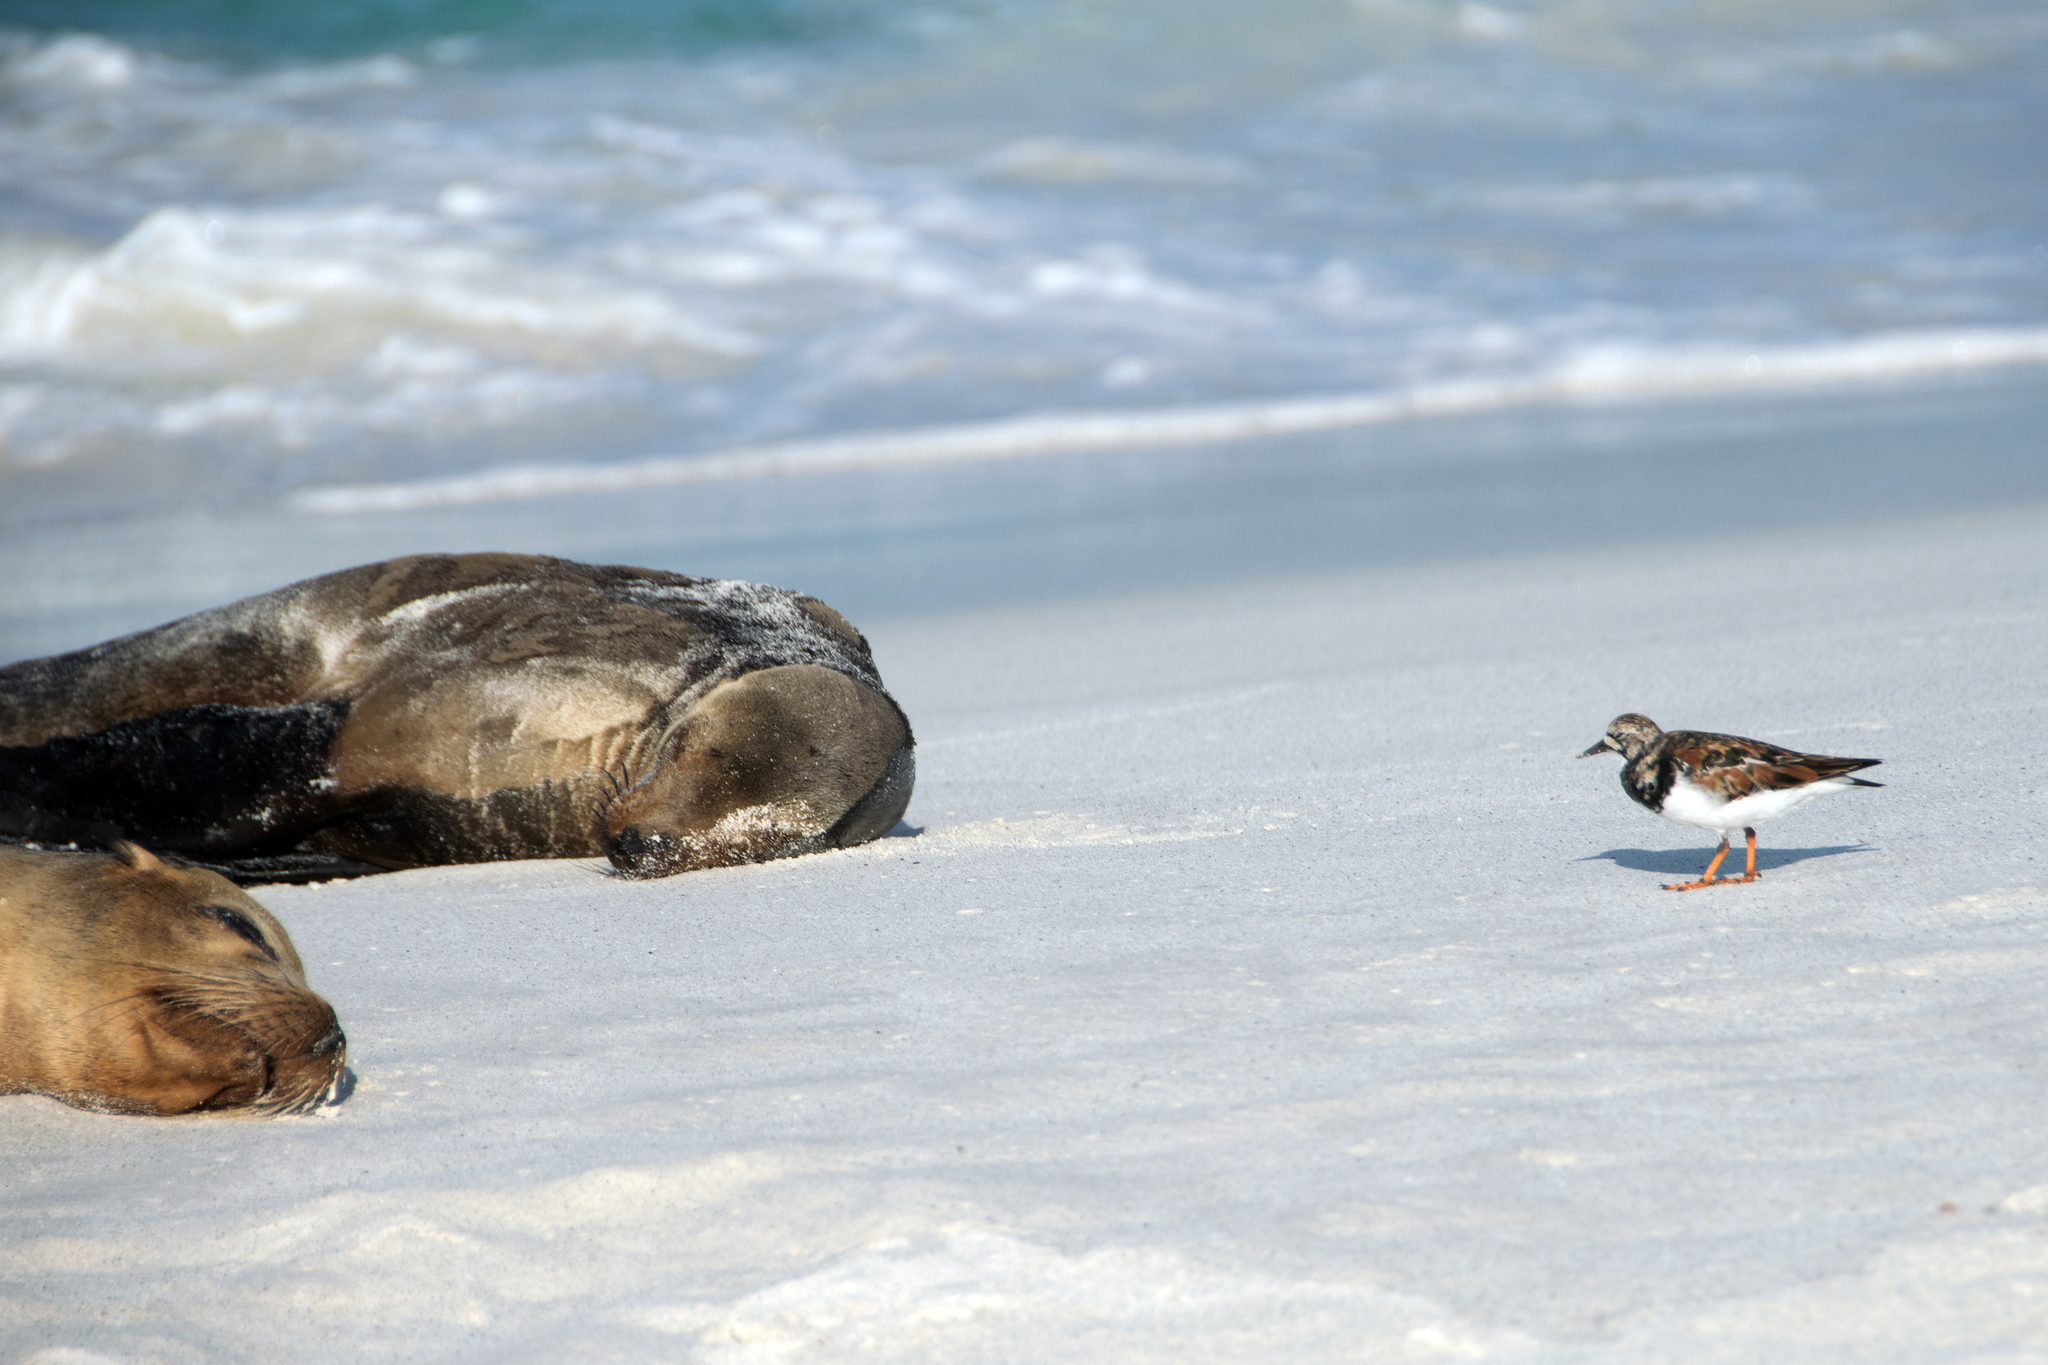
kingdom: Animalia
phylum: Chordata
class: Mammalia
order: Carnivora
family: Otariidae
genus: Zalophus
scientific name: Zalophus wollebaeki
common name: Galapagos sea lion
